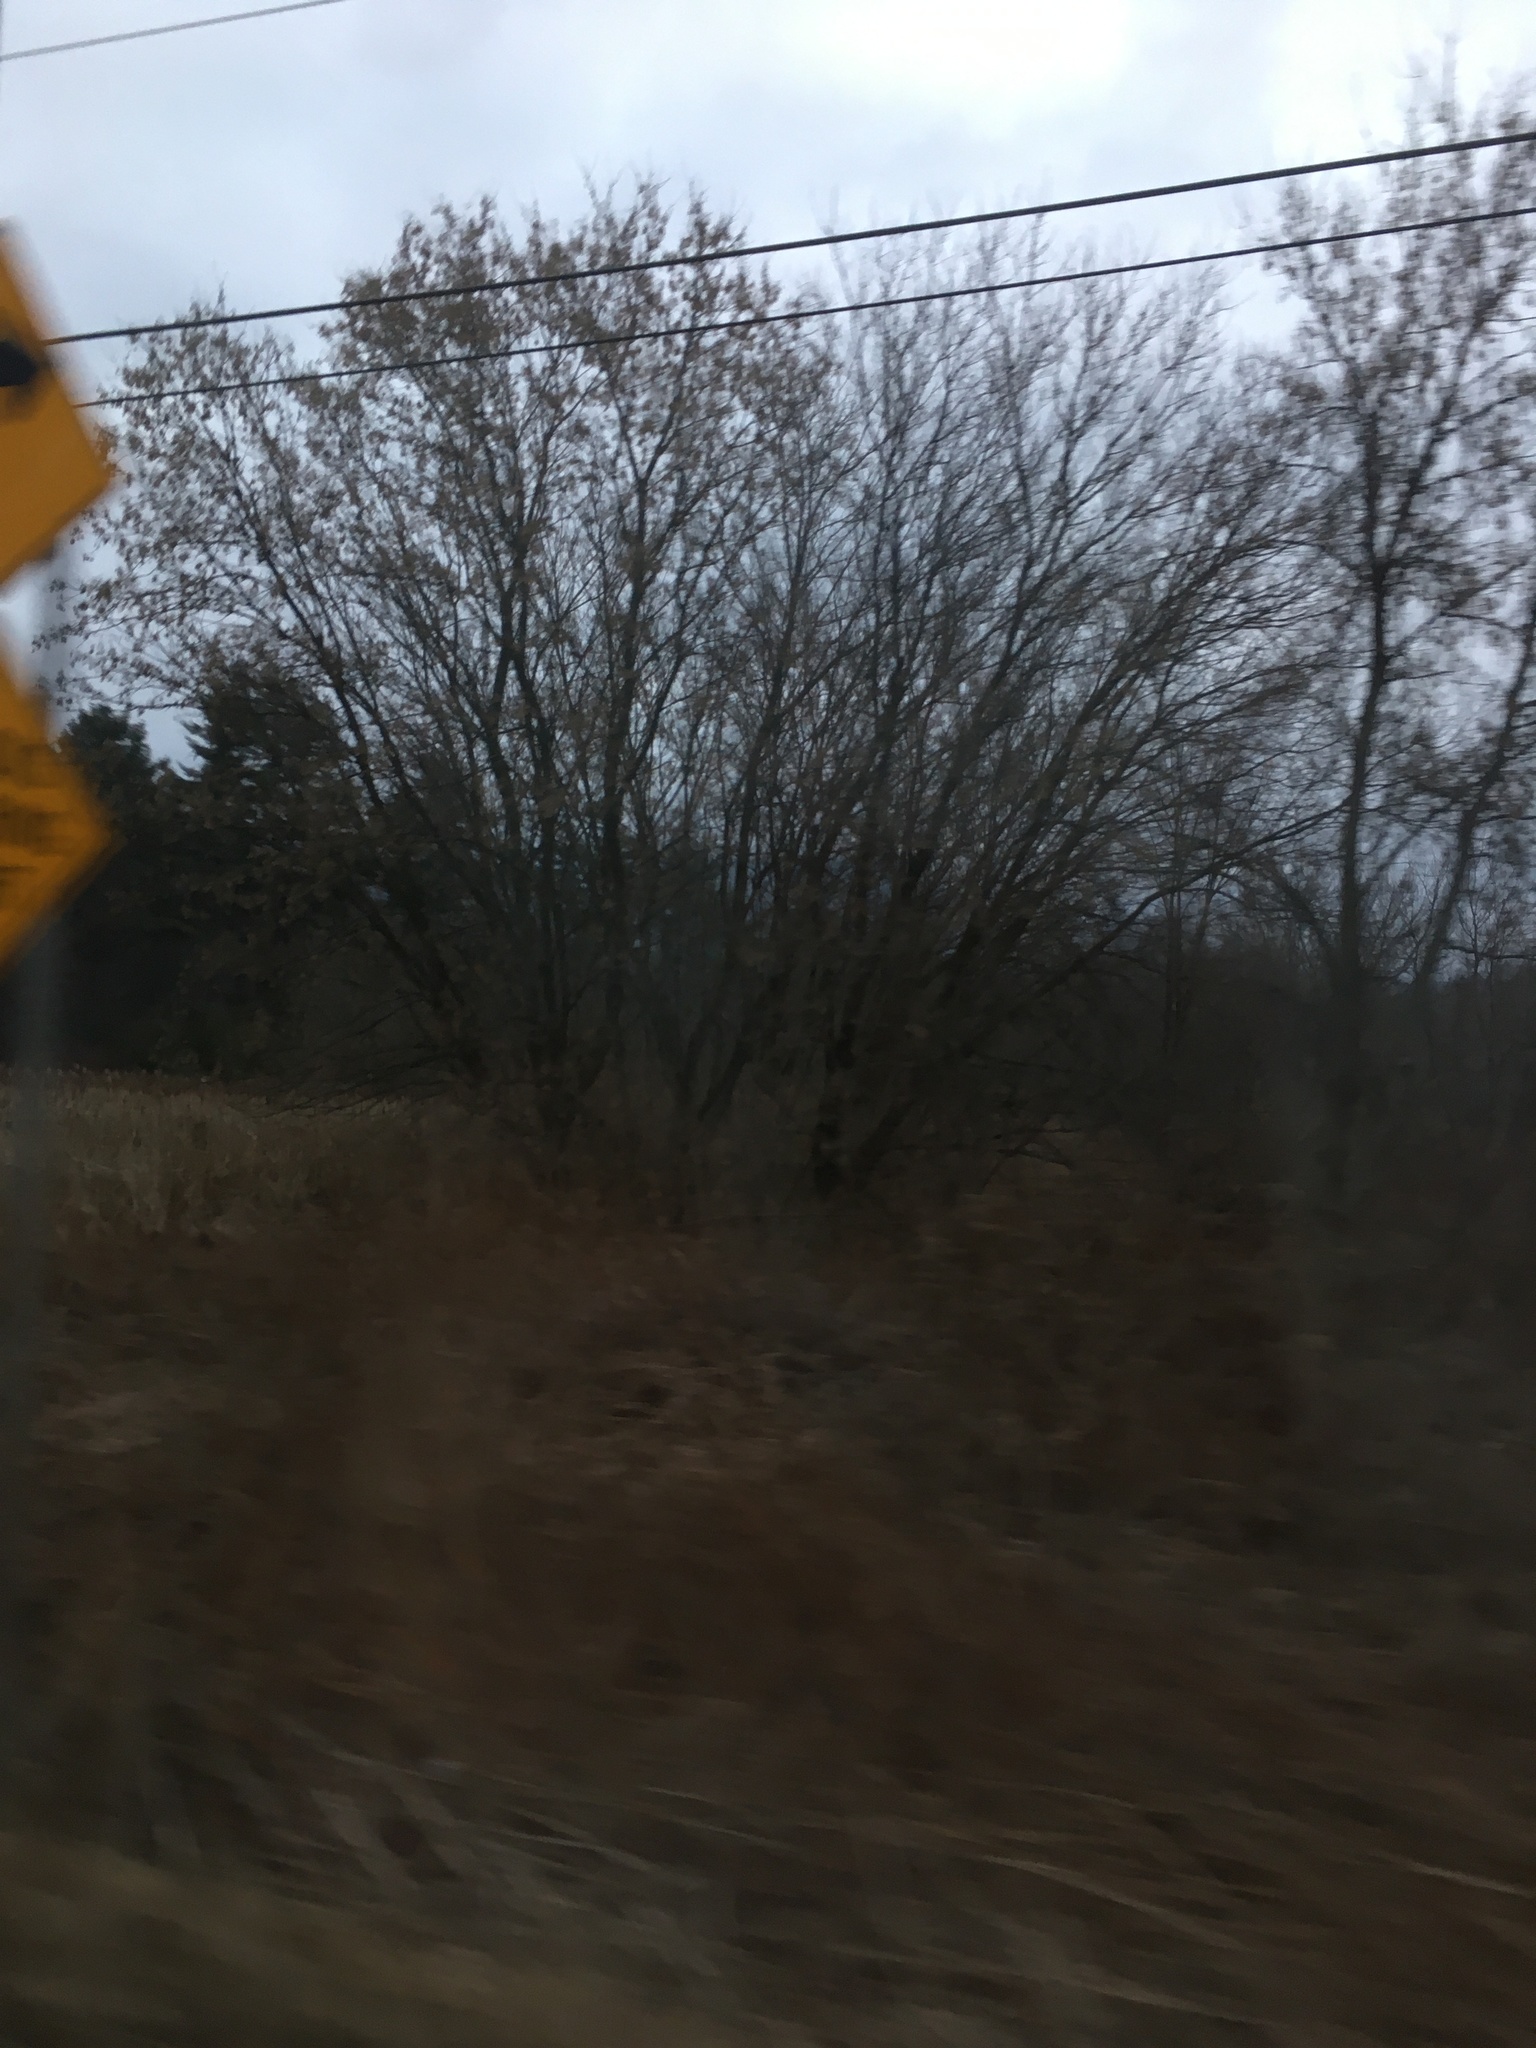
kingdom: Plantae
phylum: Tracheophyta
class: Magnoliopsida
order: Sapindales
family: Sapindaceae
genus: Acer
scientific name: Acer negundo
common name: Ashleaf maple
